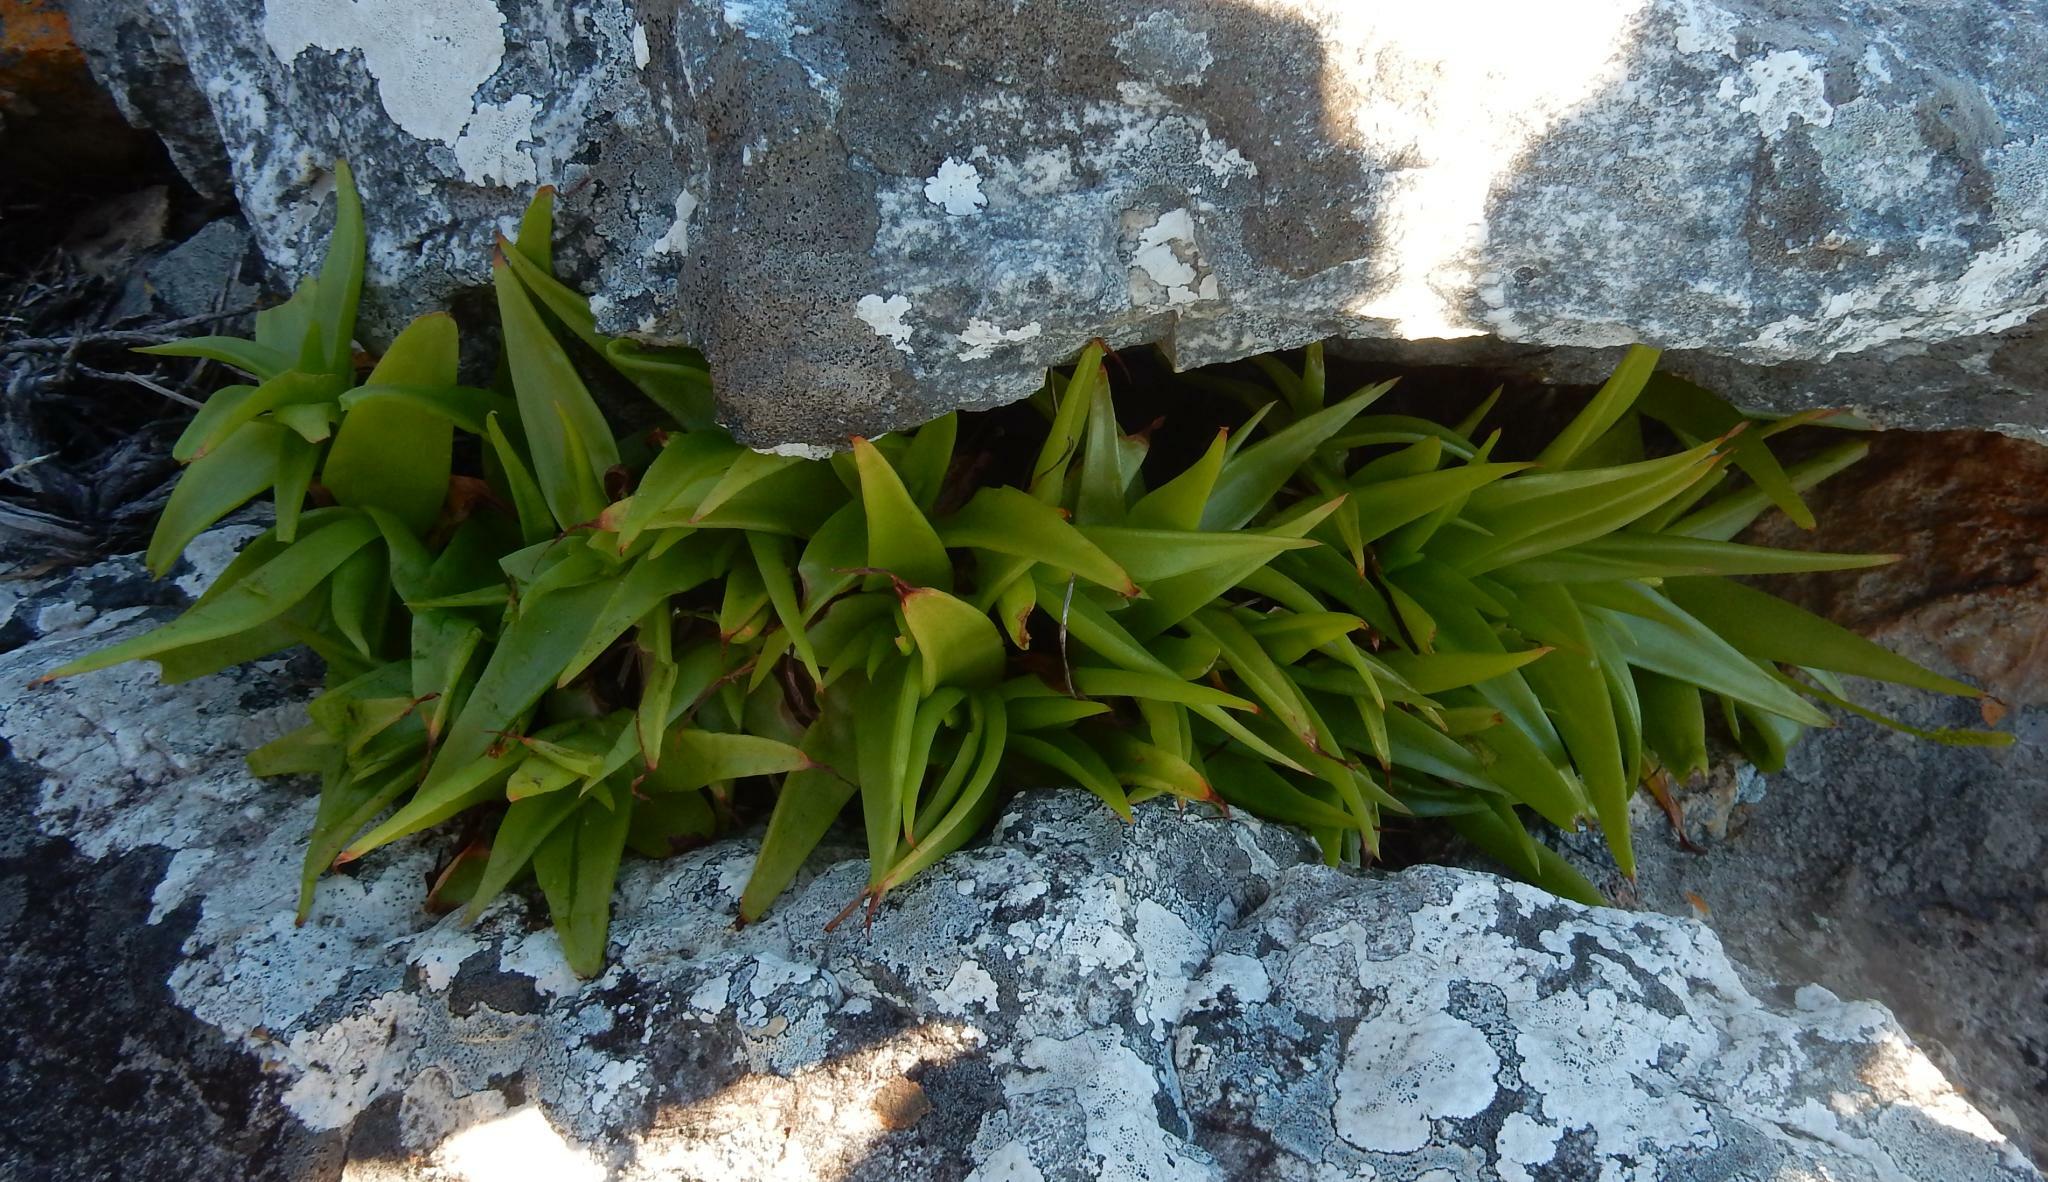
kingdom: Plantae
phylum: Tracheophyta
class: Liliopsida
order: Asparagales
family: Asphodelaceae
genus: Bulbine
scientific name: Bulbine latifolia
